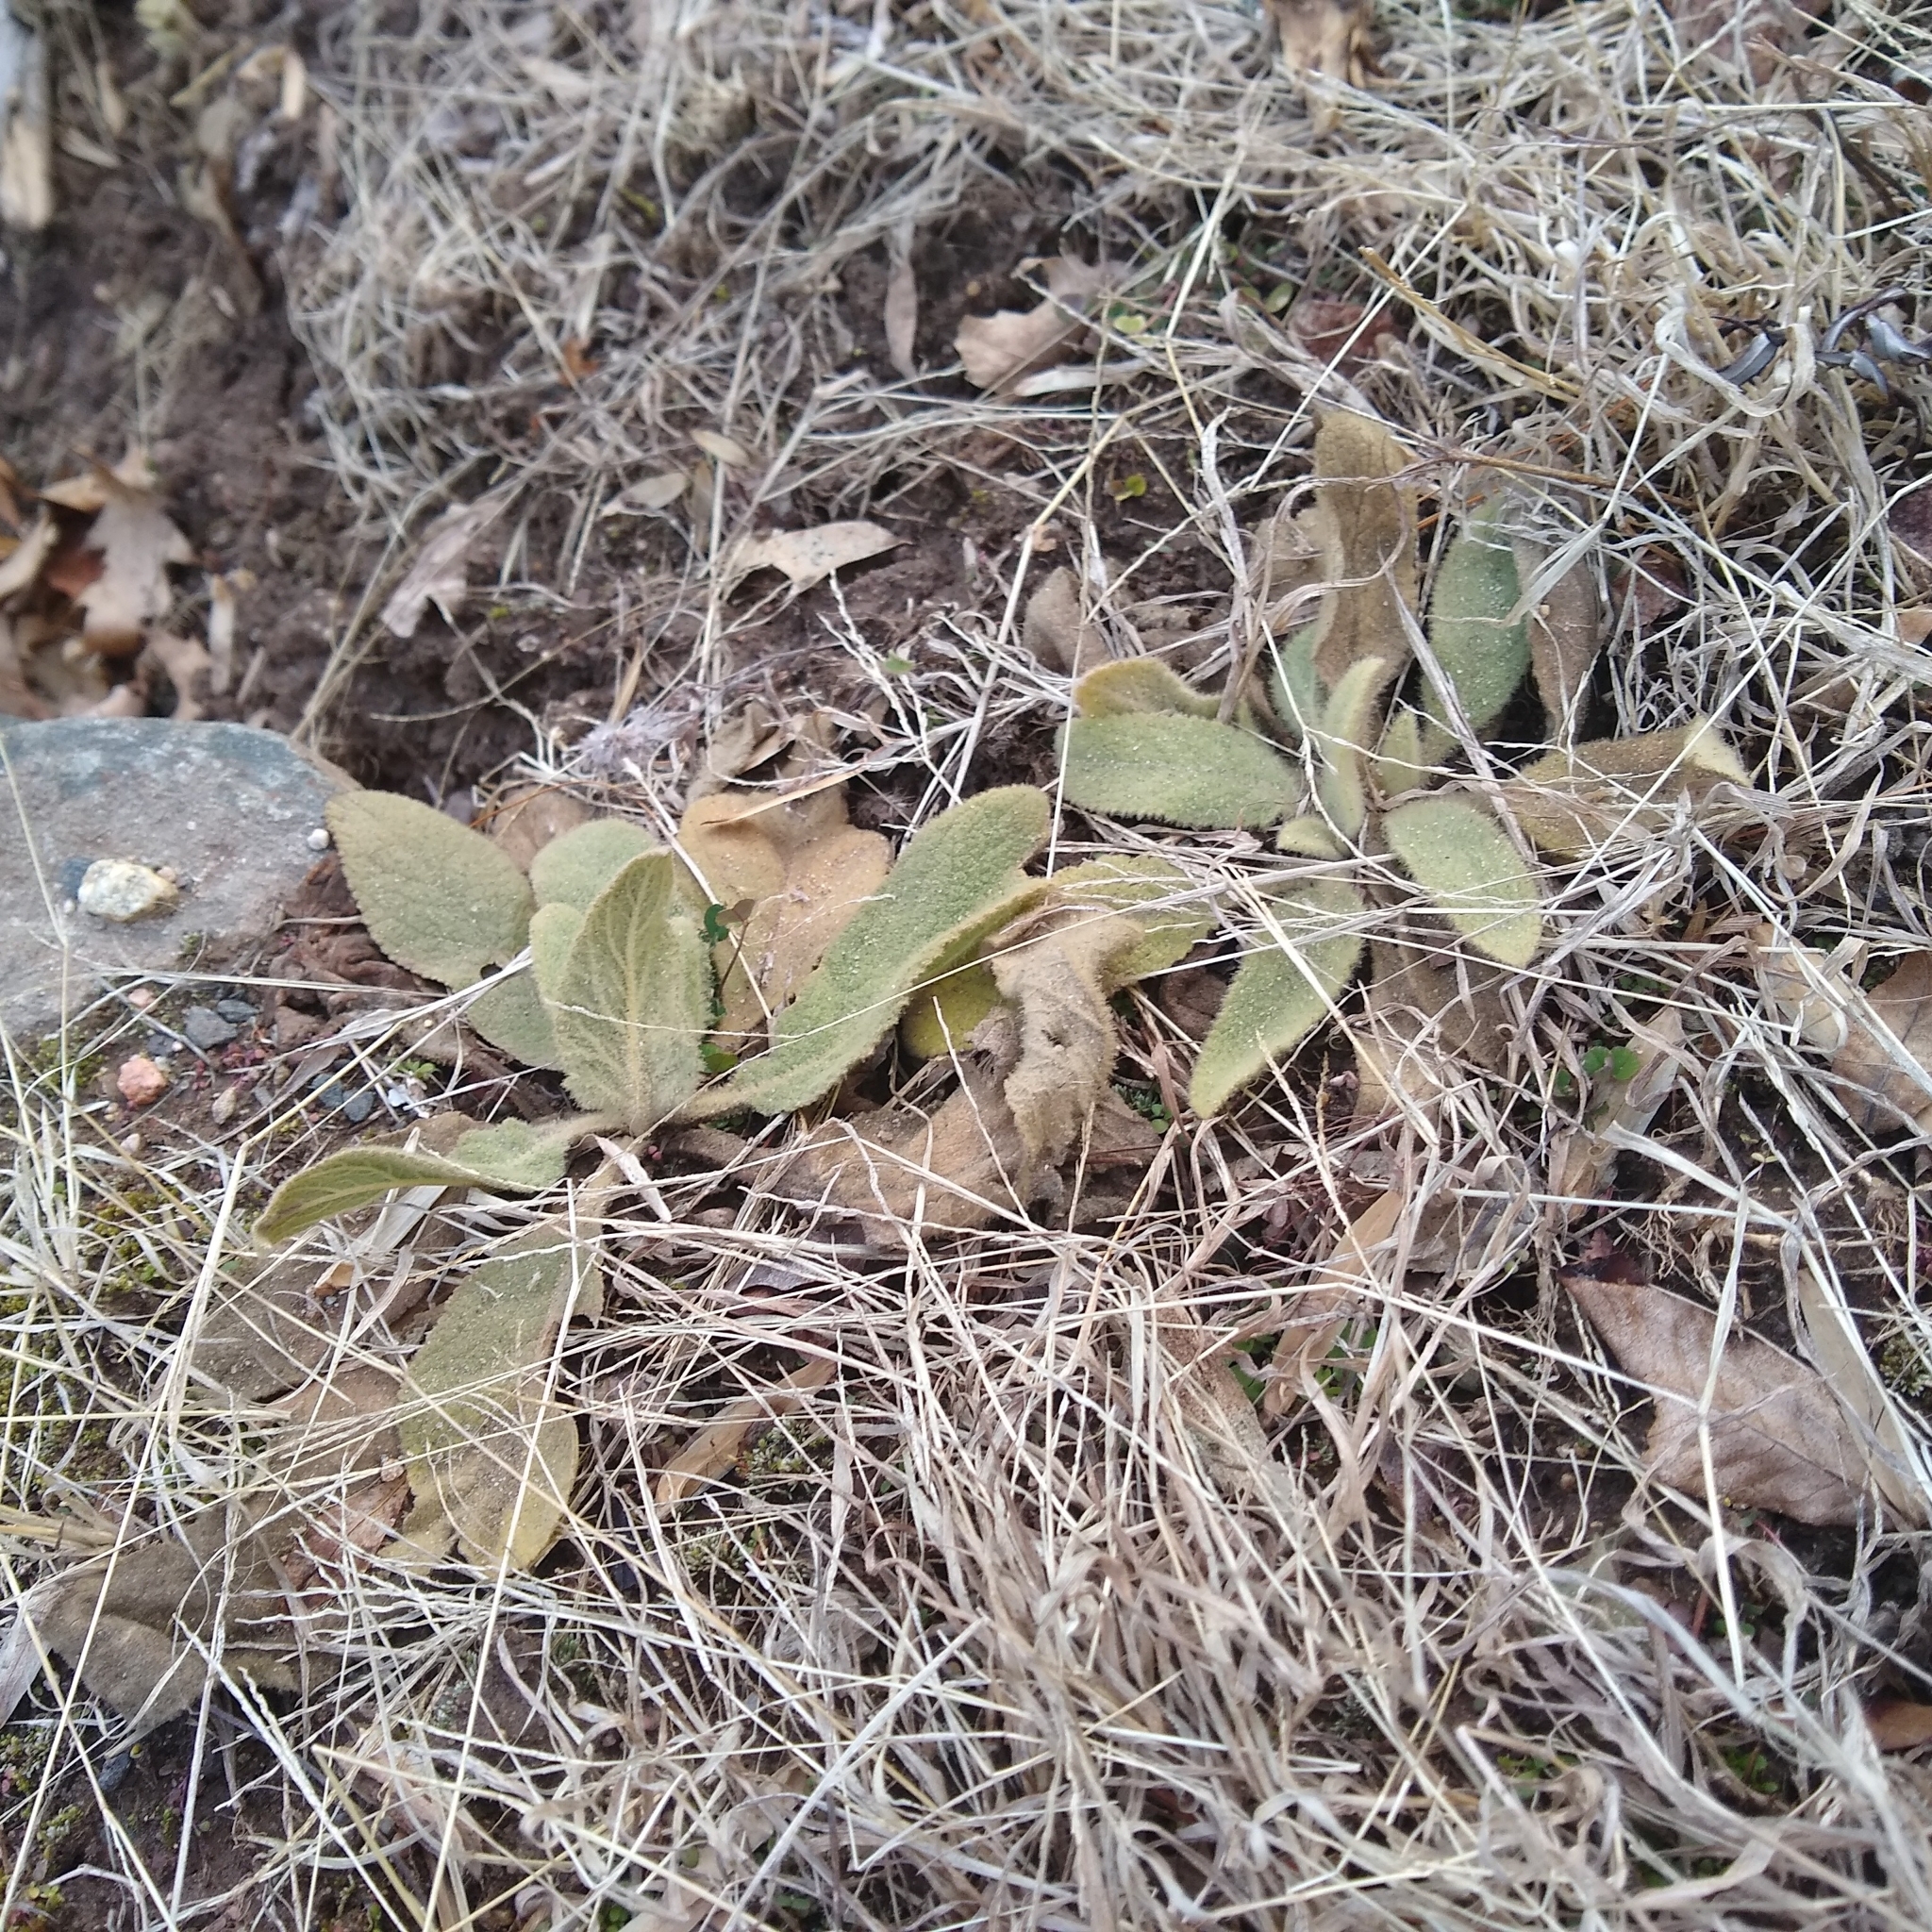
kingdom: Plantae
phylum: Tracheophyta
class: Magnoliopsida
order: Lamiales
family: Scrophulariaceae
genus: Verbascum
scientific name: Verbascum thapsus
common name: Common mullein
